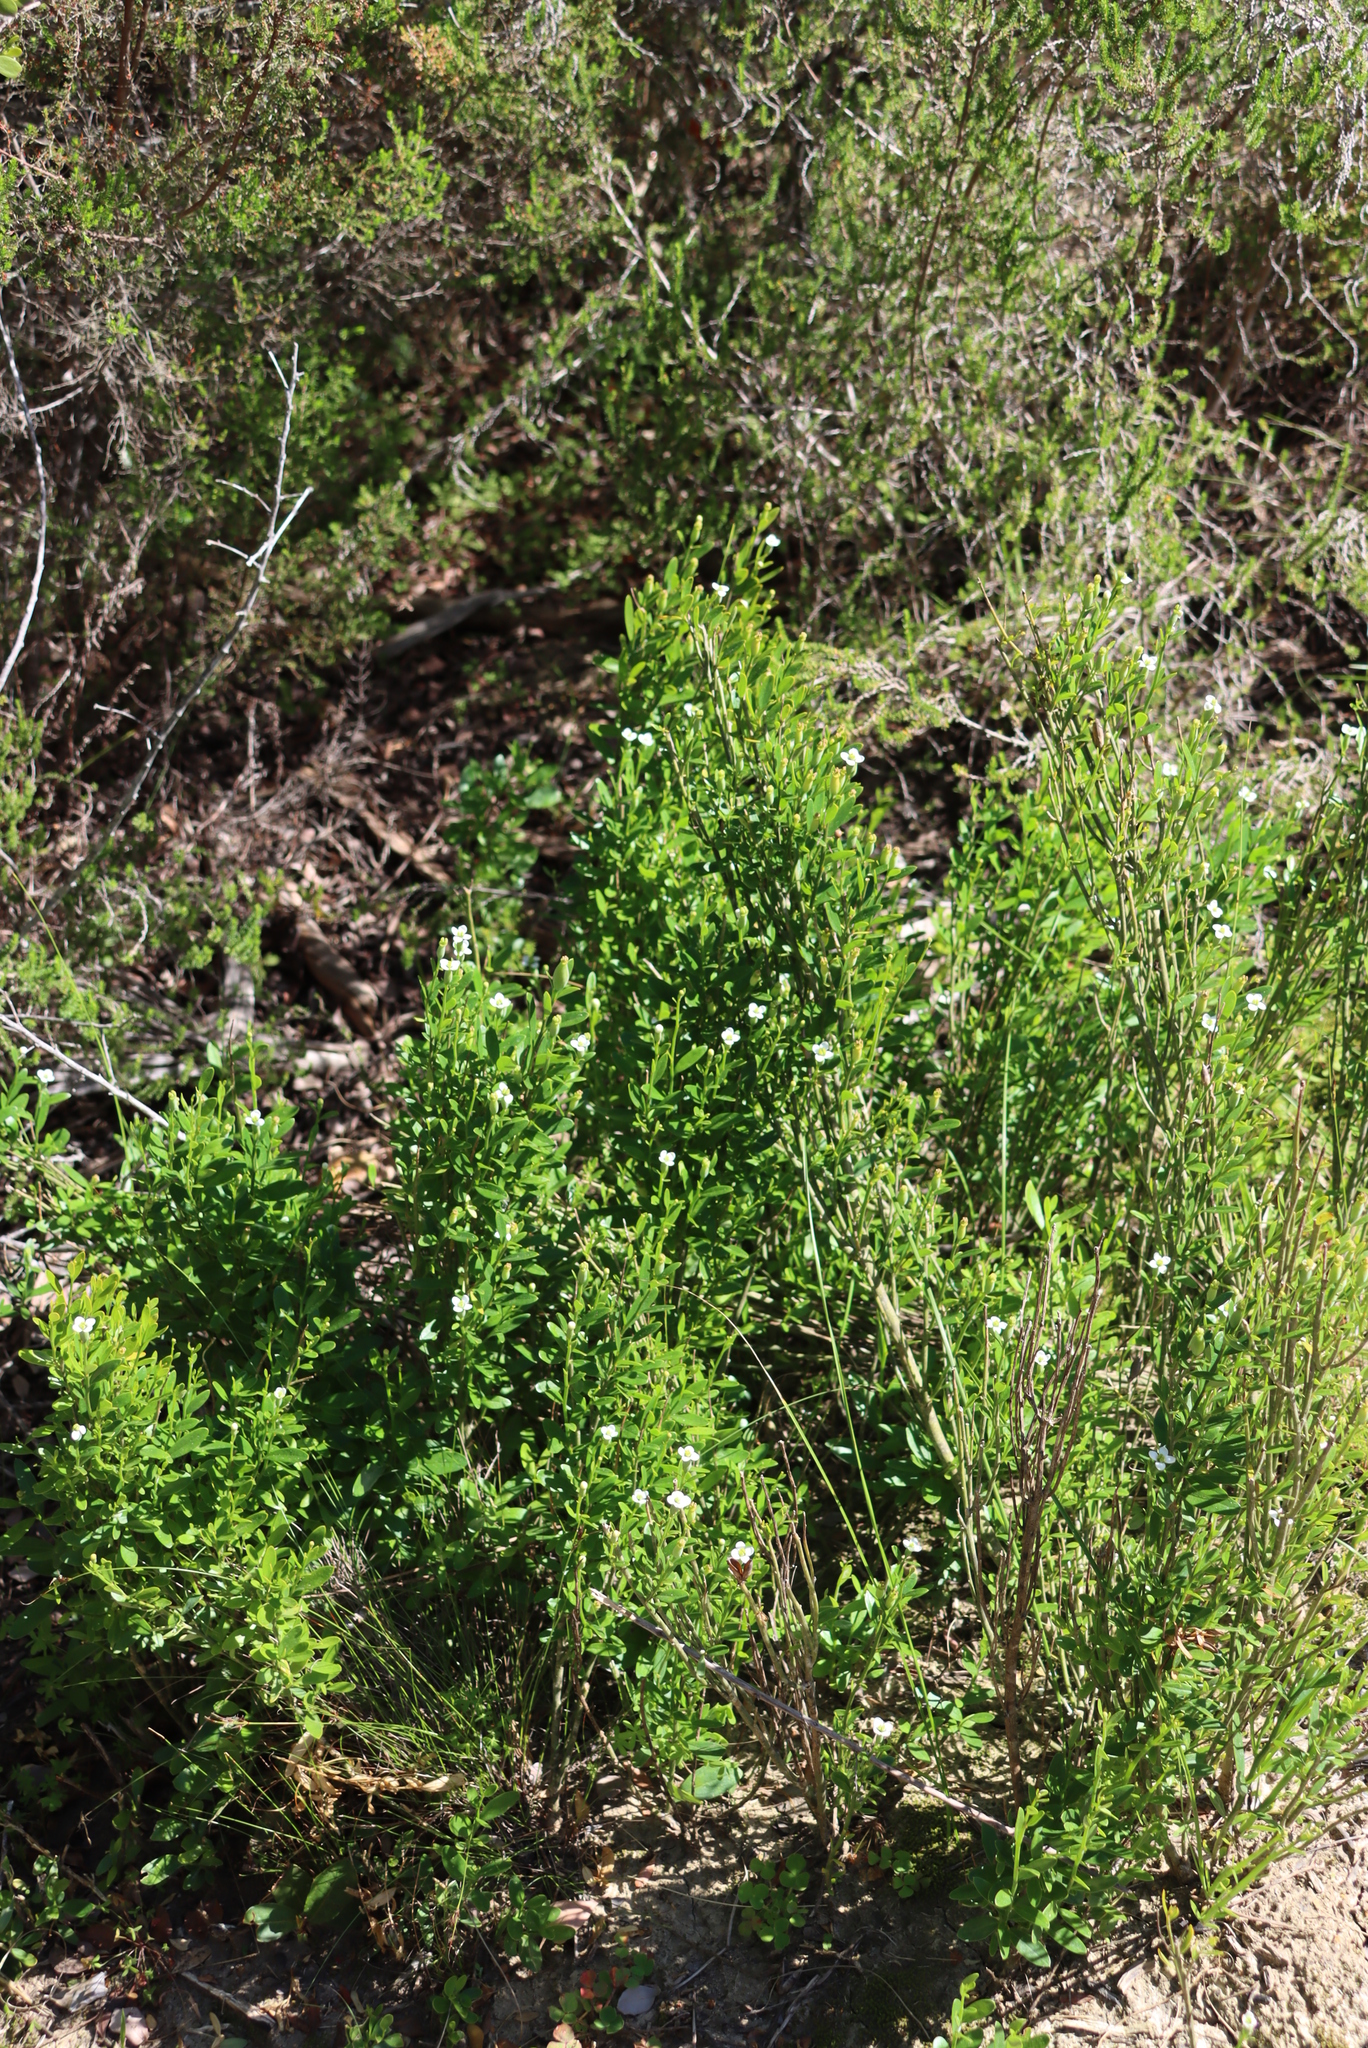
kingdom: Plantae
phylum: Tracheophyta
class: Magnoliopsida
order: Solanales
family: Montiniaceae
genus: Montinia
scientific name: Montinia caryophyllacea
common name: Wild clove-bush
